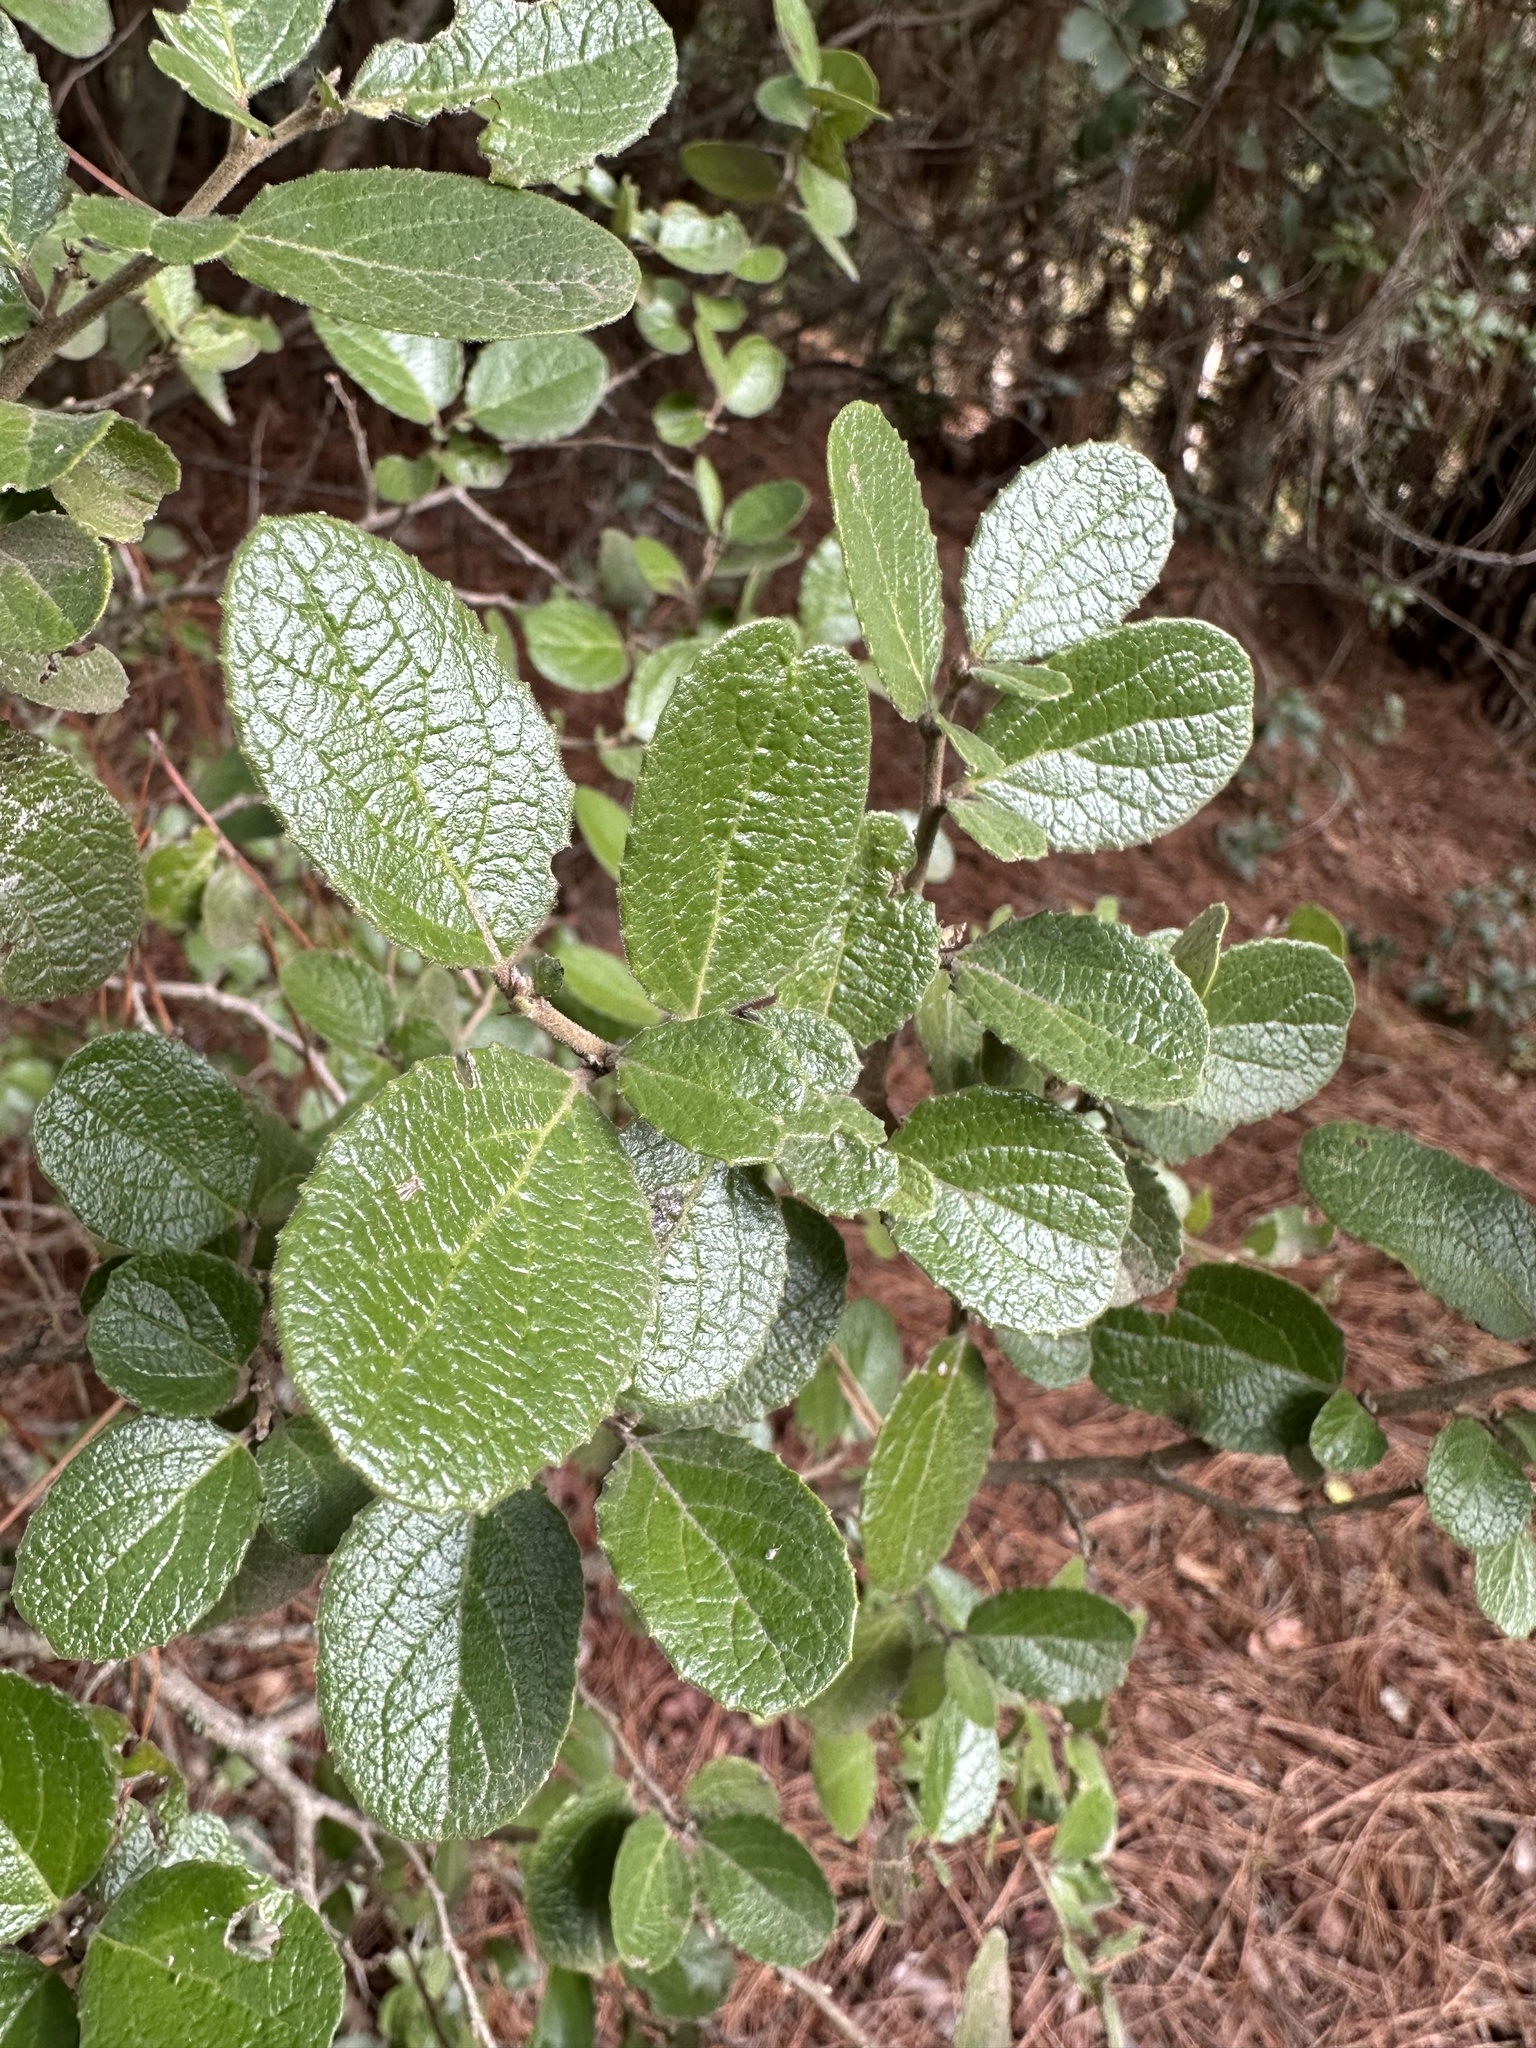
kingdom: Plantae
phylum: Tracheophyta
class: Magnoliopsida
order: Malpighiales
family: Salicaceae
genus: Azara
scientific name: Azara dentata
